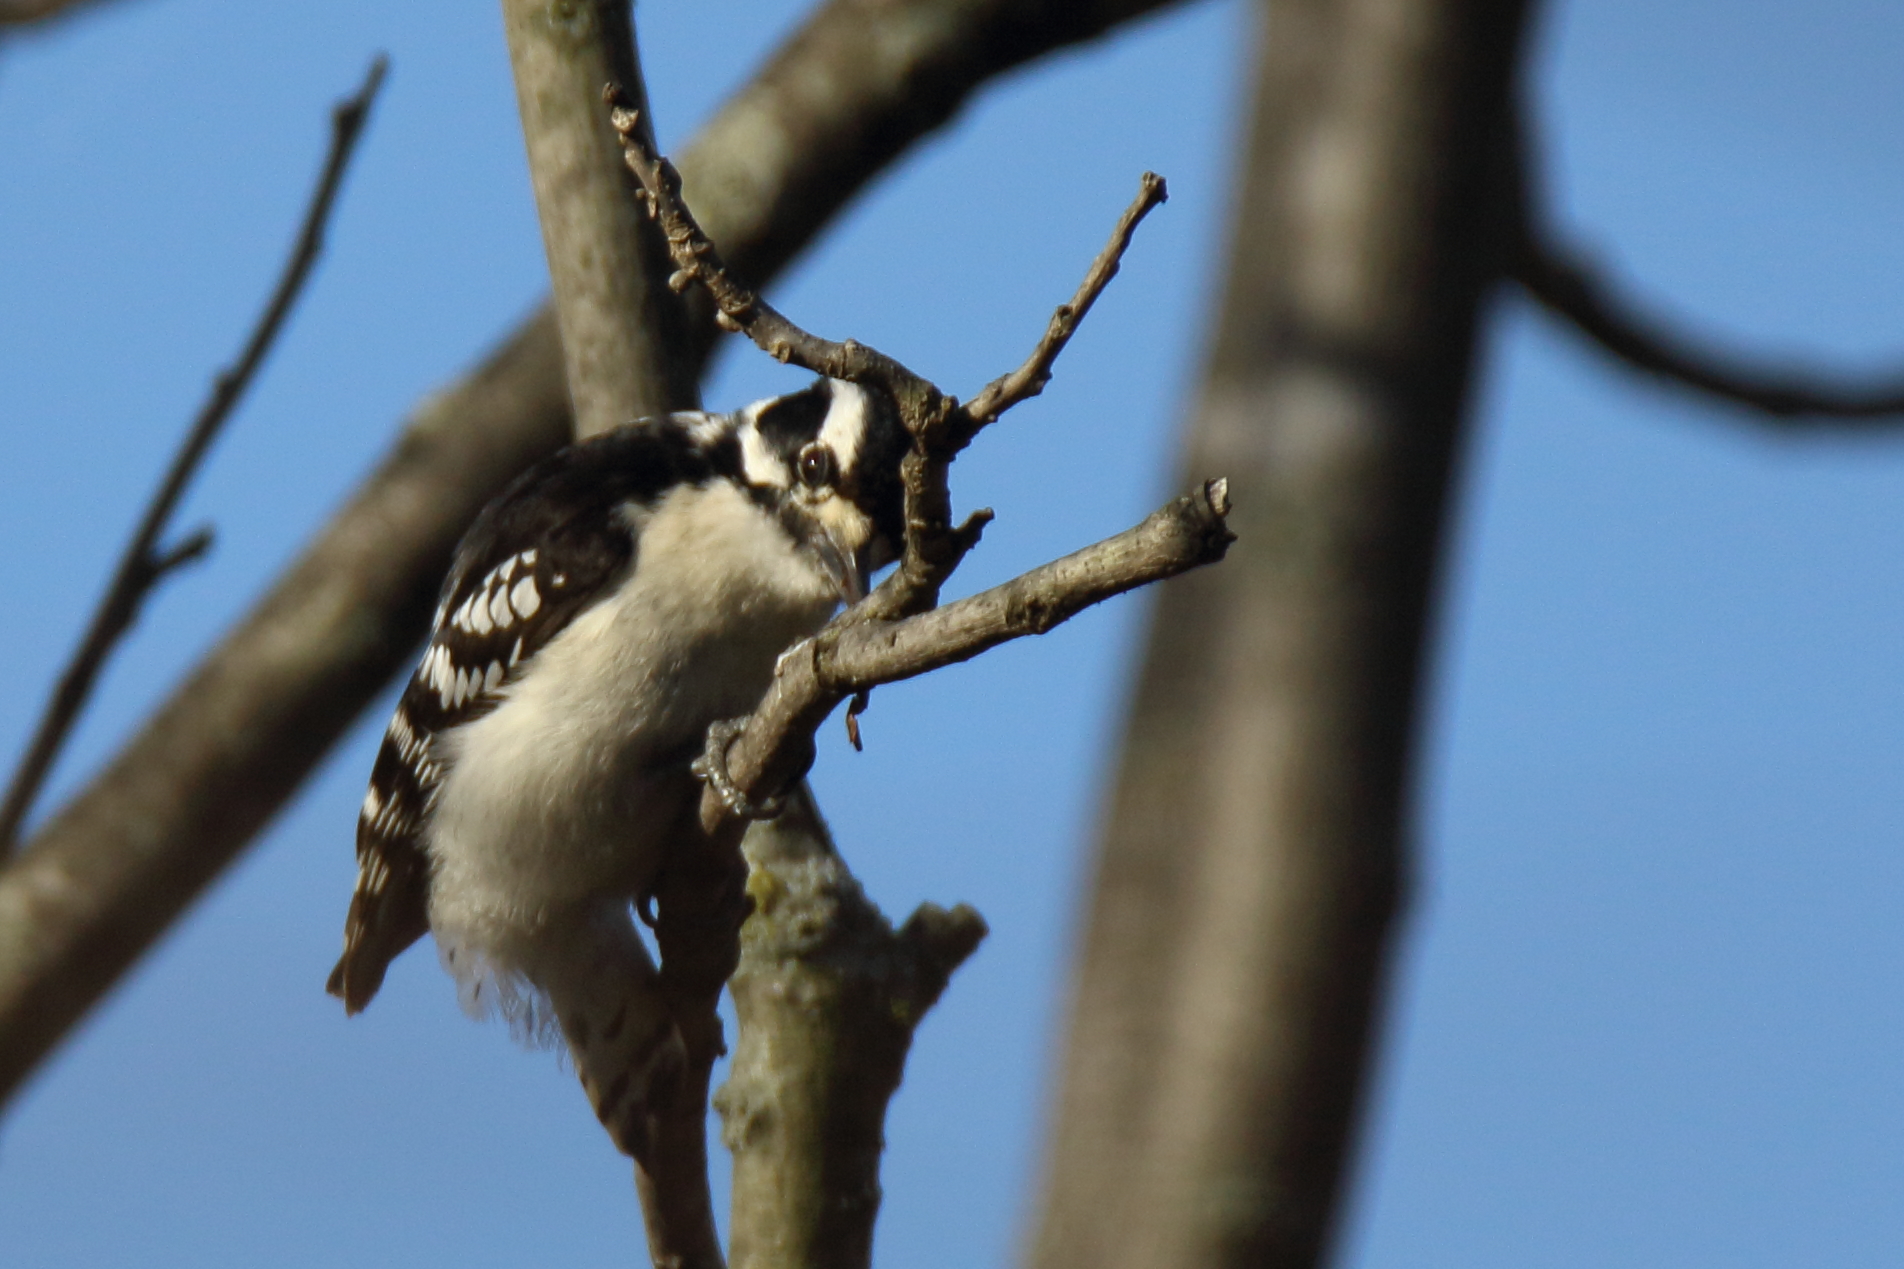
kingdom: Animalia
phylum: Chordata
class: Aves
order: Piciformes
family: Picidae
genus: Dryobates
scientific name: Dryobates pubescens
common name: Downy woodpecker
